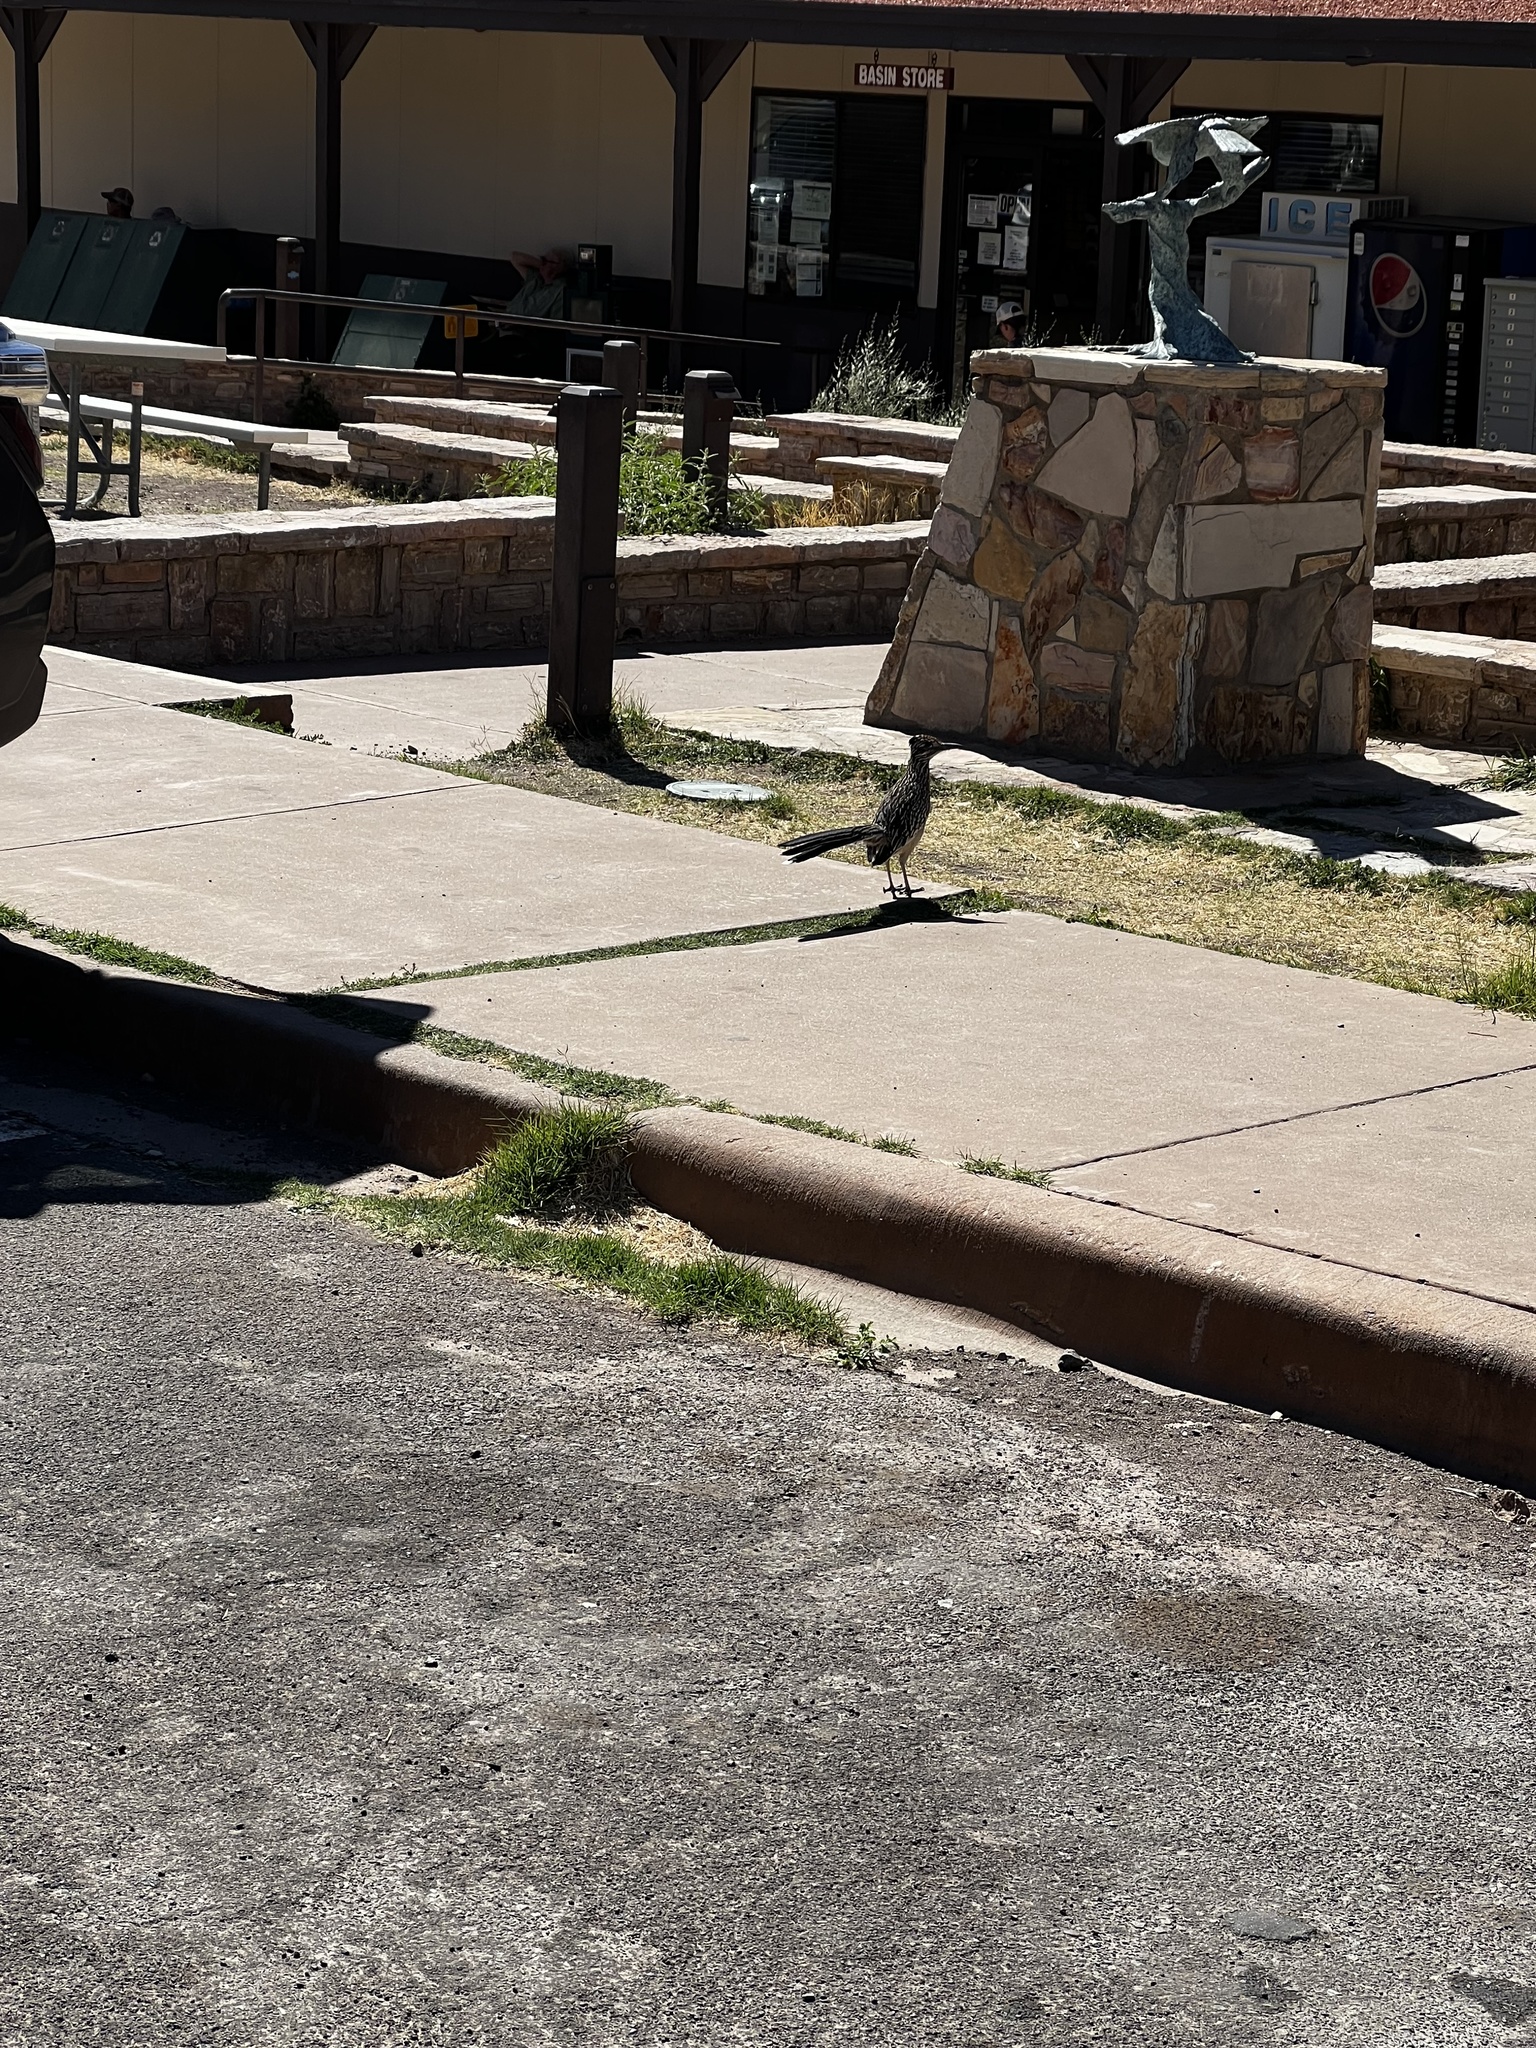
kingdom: Animalia
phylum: Chordata
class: Aves
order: Cuculiformes
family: Cuculidae
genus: Geococcyx
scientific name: Geococcyx californianus
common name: Greater roadrunner
